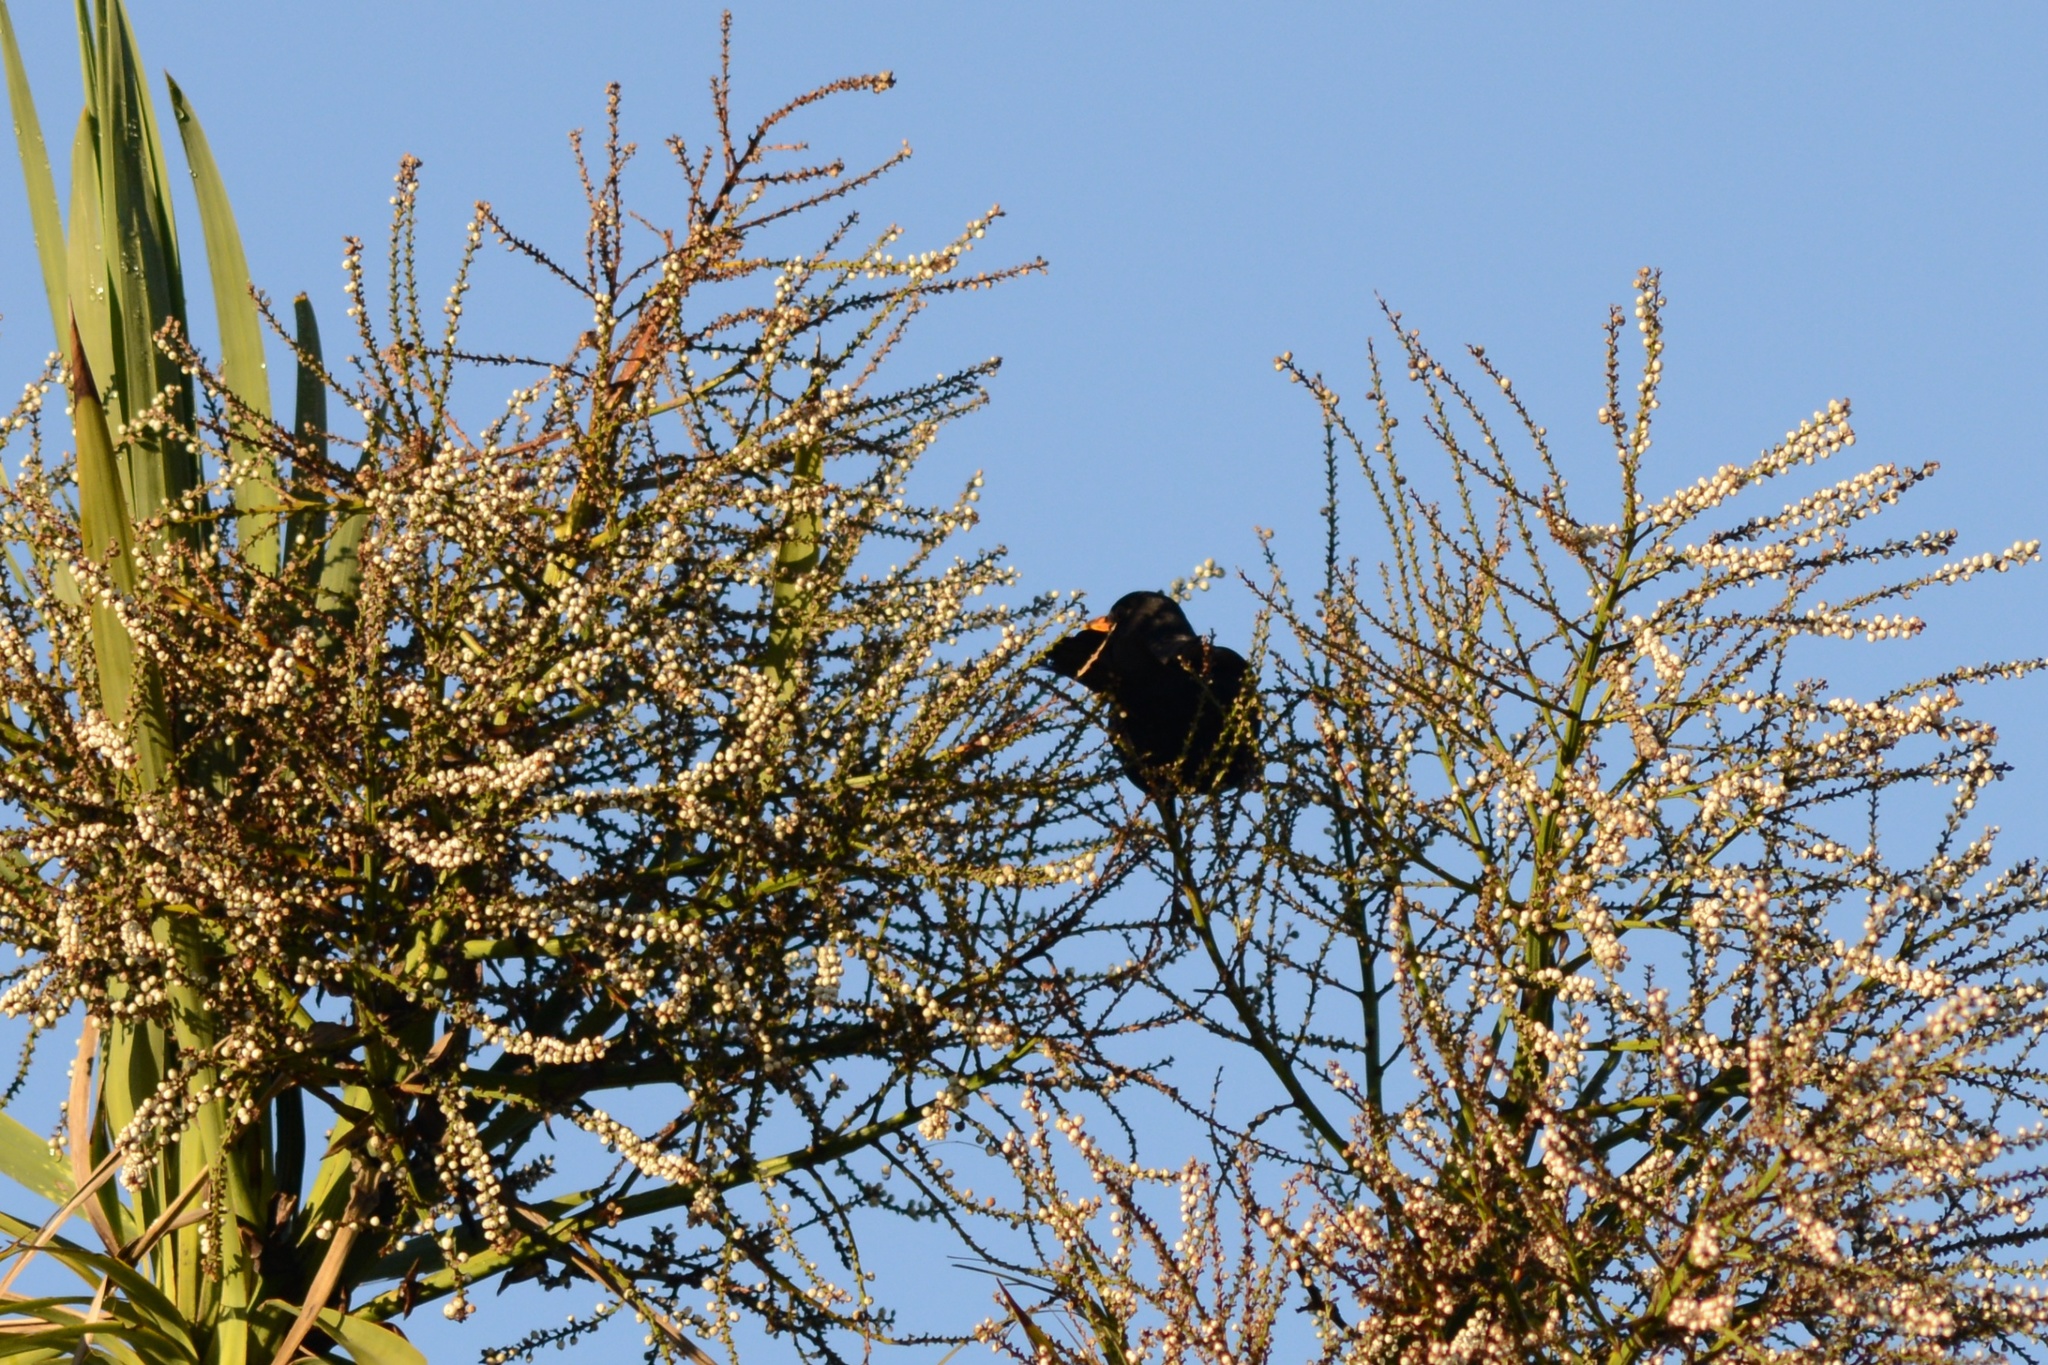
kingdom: Animalia
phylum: Chordata
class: Aves
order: Passeriformes
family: Turdidae
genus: Turdus
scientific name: Turdus merula
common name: Common blackbird
